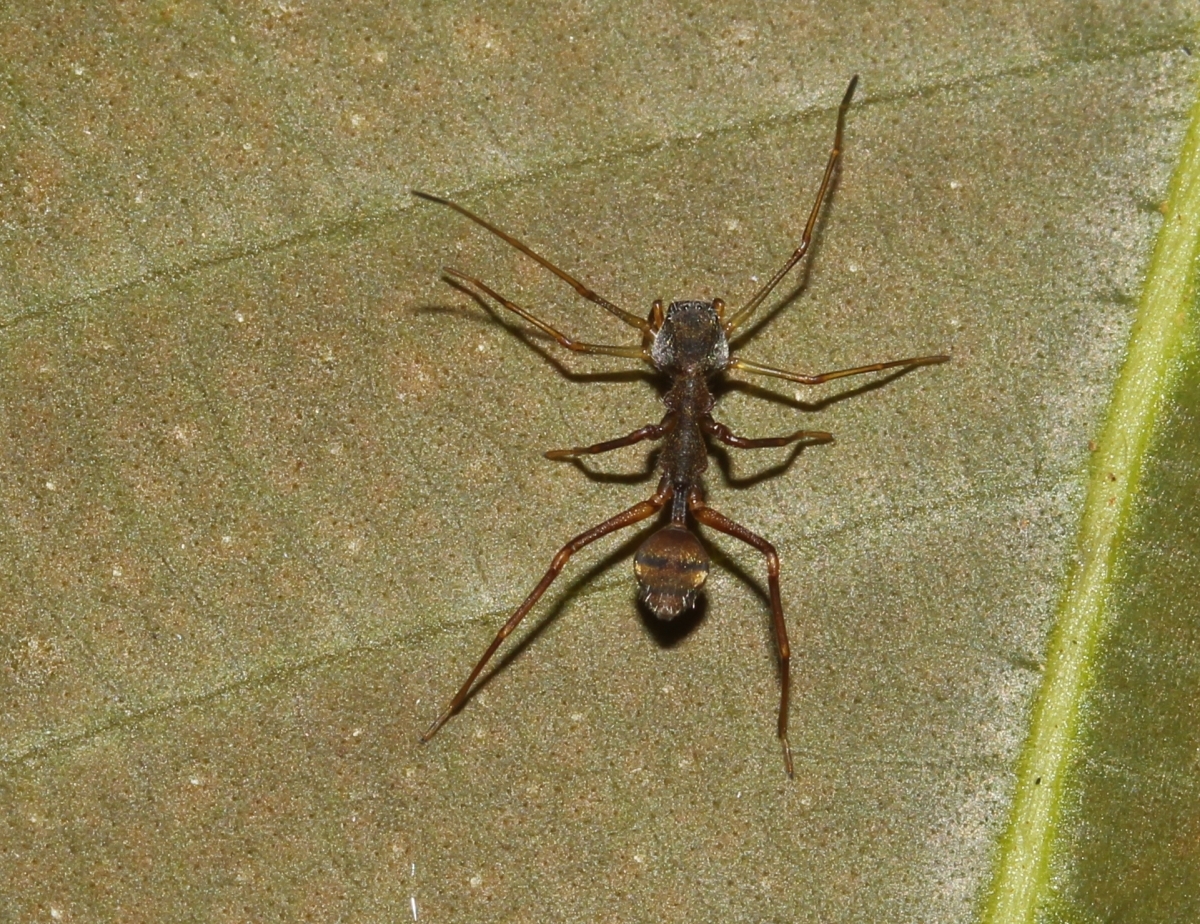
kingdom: Animalia
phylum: Arthropoda
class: Arachnida
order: Araneae
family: Corinnidae
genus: Myrmecium
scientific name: Myrmecium
